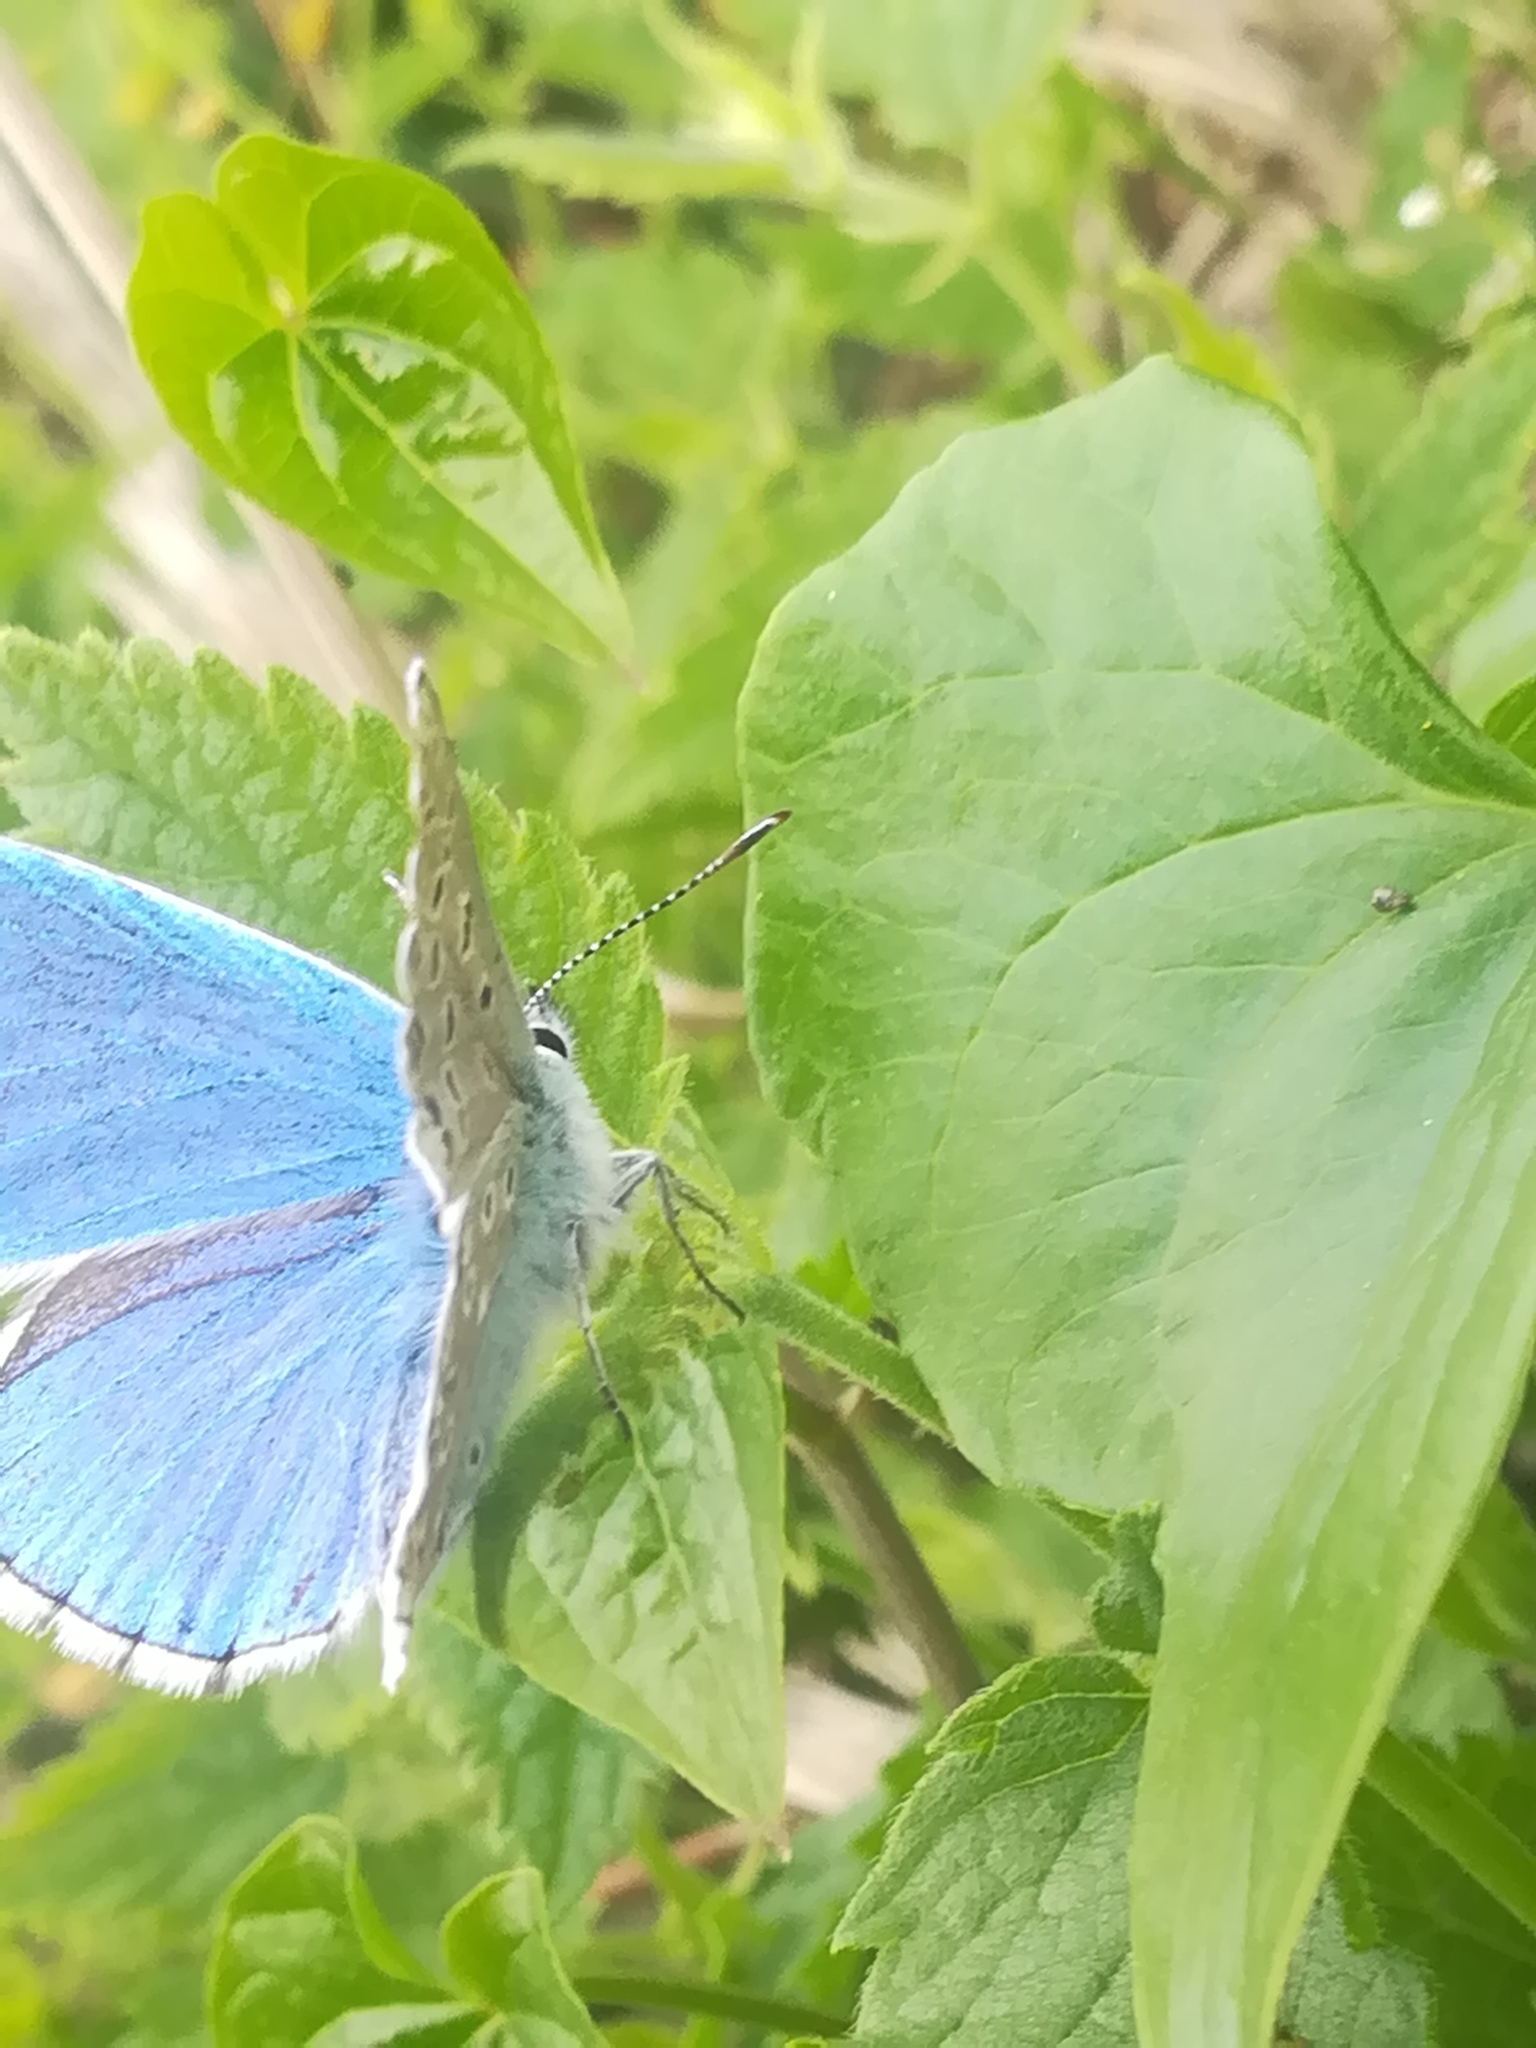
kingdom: Animalia
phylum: Arthropoda
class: Insecta
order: Lepidoptera
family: Lycaenidae
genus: Lysandra
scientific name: Lysandra bellargus
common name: Adonis blue
